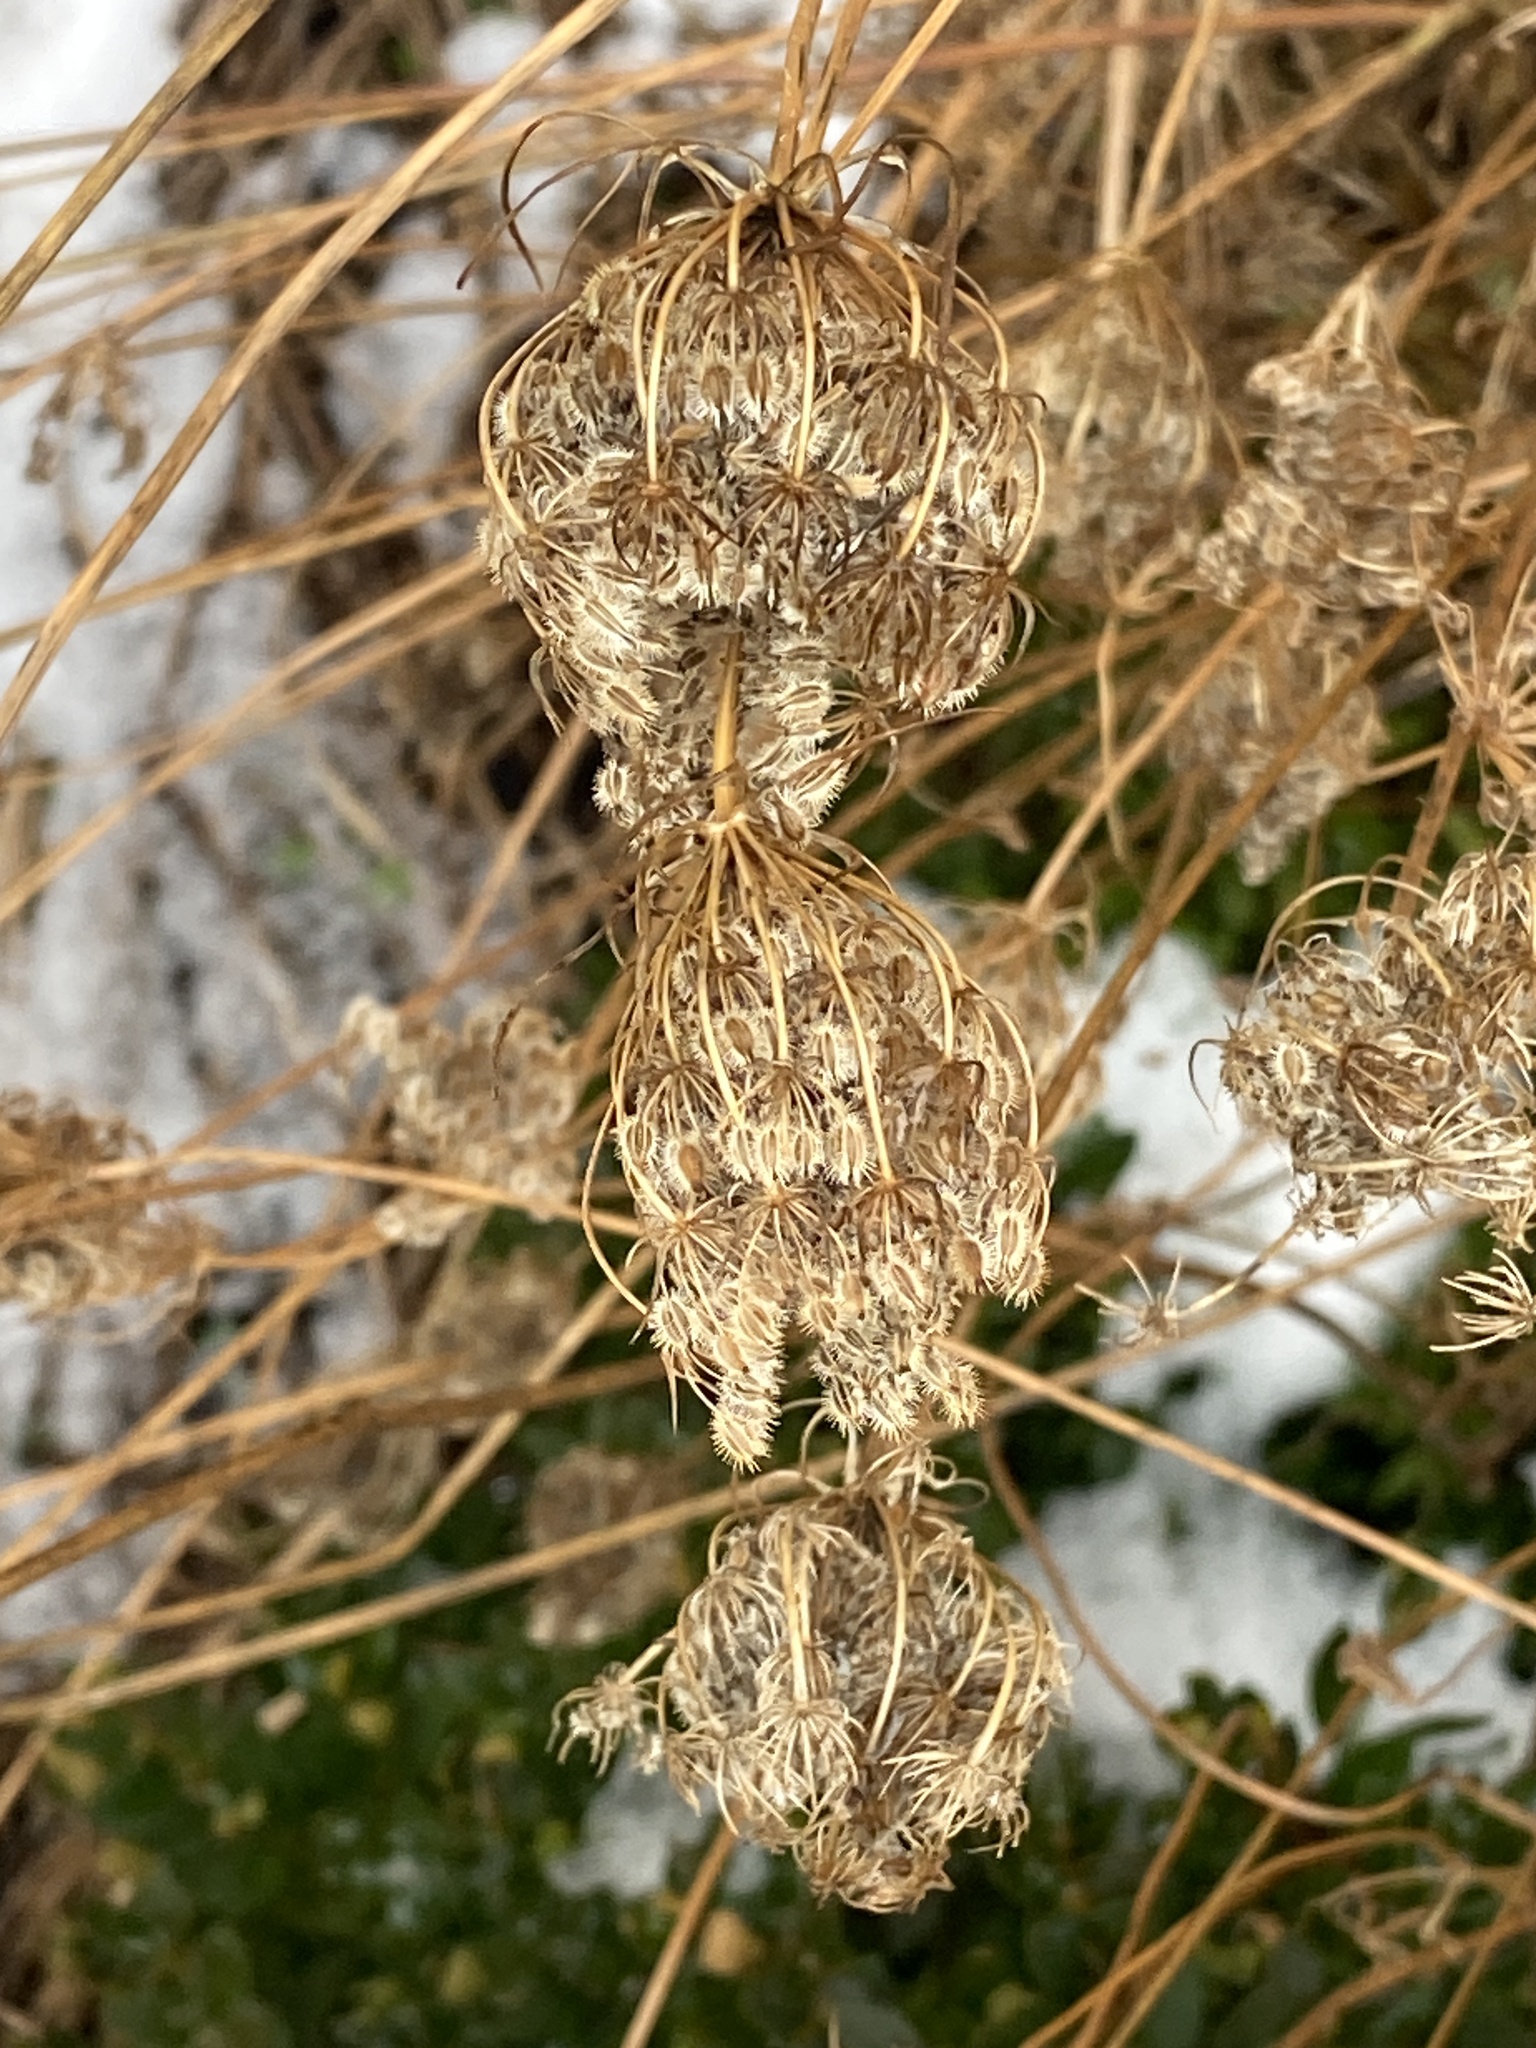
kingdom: Plantae
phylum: Tracheophyta
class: Magnoliopsida
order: Apiales
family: Apiaceae
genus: Daucus
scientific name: Daucus carota
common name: Wild carrot
